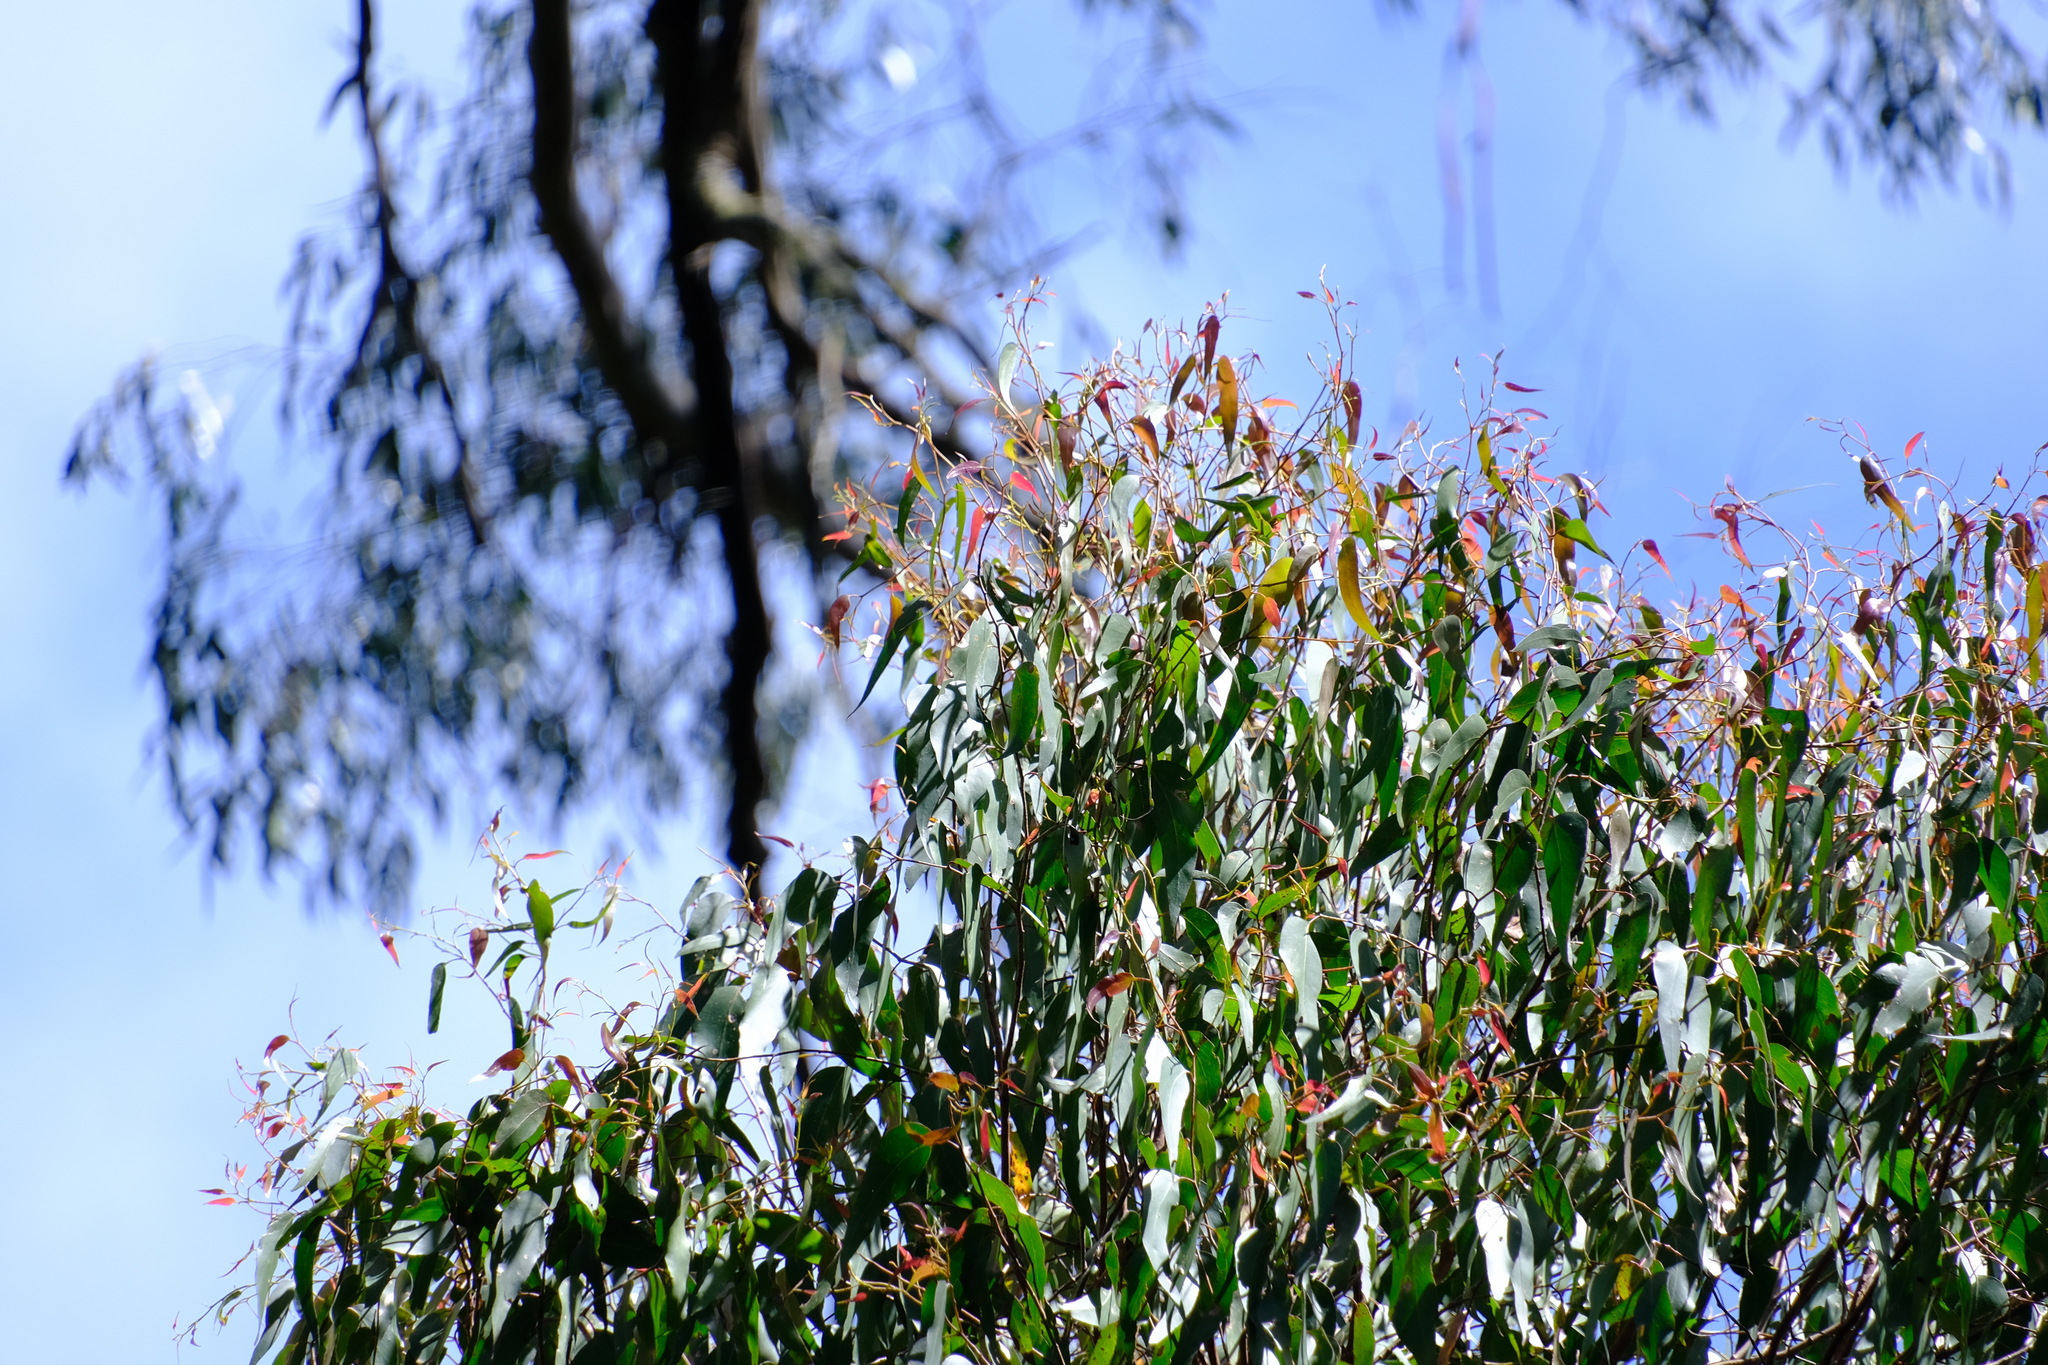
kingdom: Plantae
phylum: Tracheophyta
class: Magnoliopsida
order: Myrtales
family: Myrtaceae
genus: Eucalyptus
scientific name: Eucalyptus regnans
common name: Stringy gum
